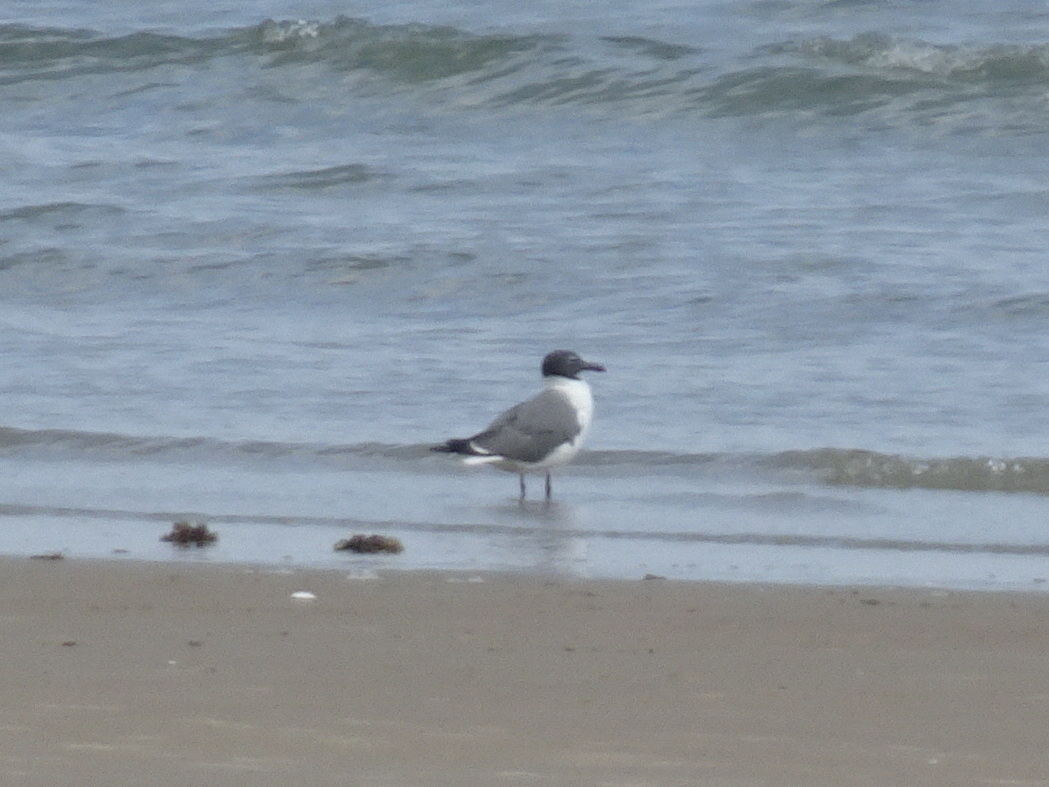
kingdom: Animalia
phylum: Chordata
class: Aves
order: Charadriiformes
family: Laridae
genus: Leucophaeus
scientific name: Leucophaeus atricilla
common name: Laughing gull
